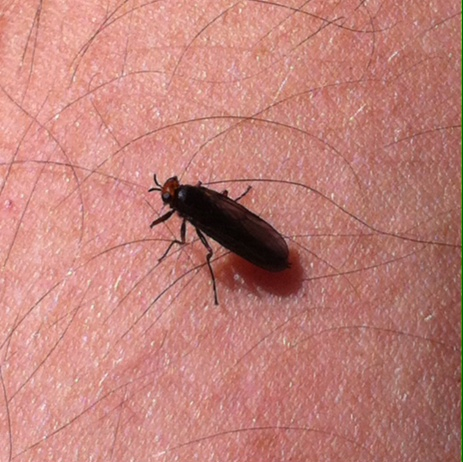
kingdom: Animalia
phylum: Arthropoda
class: Insecta
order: Diptera
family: Stratiomyidae
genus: Inopus
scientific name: Inopus rubriceps
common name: Soldier fly
